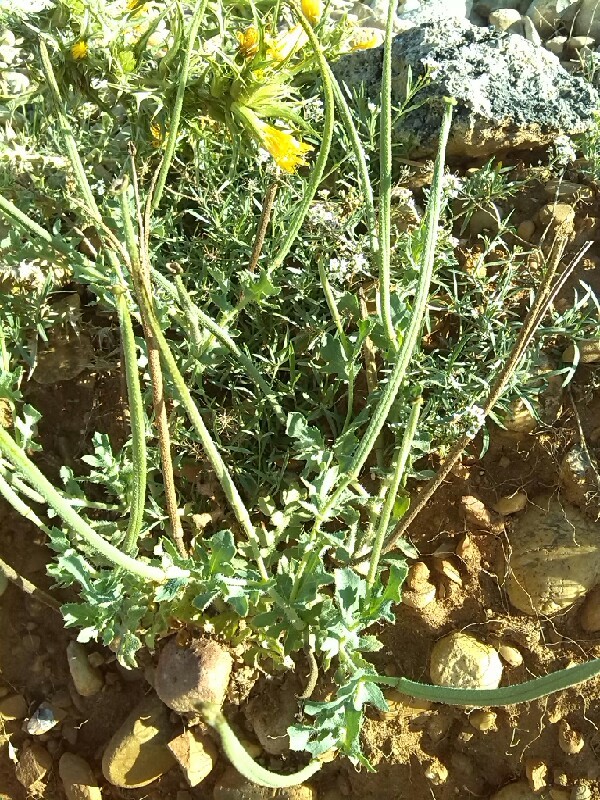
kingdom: Plantae
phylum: Tracheophyta
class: Magnoliopsida
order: Ranunculales
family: Papaveraceae
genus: Glaucium
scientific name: Glaucium corniculatum
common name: Red horned-poppy
